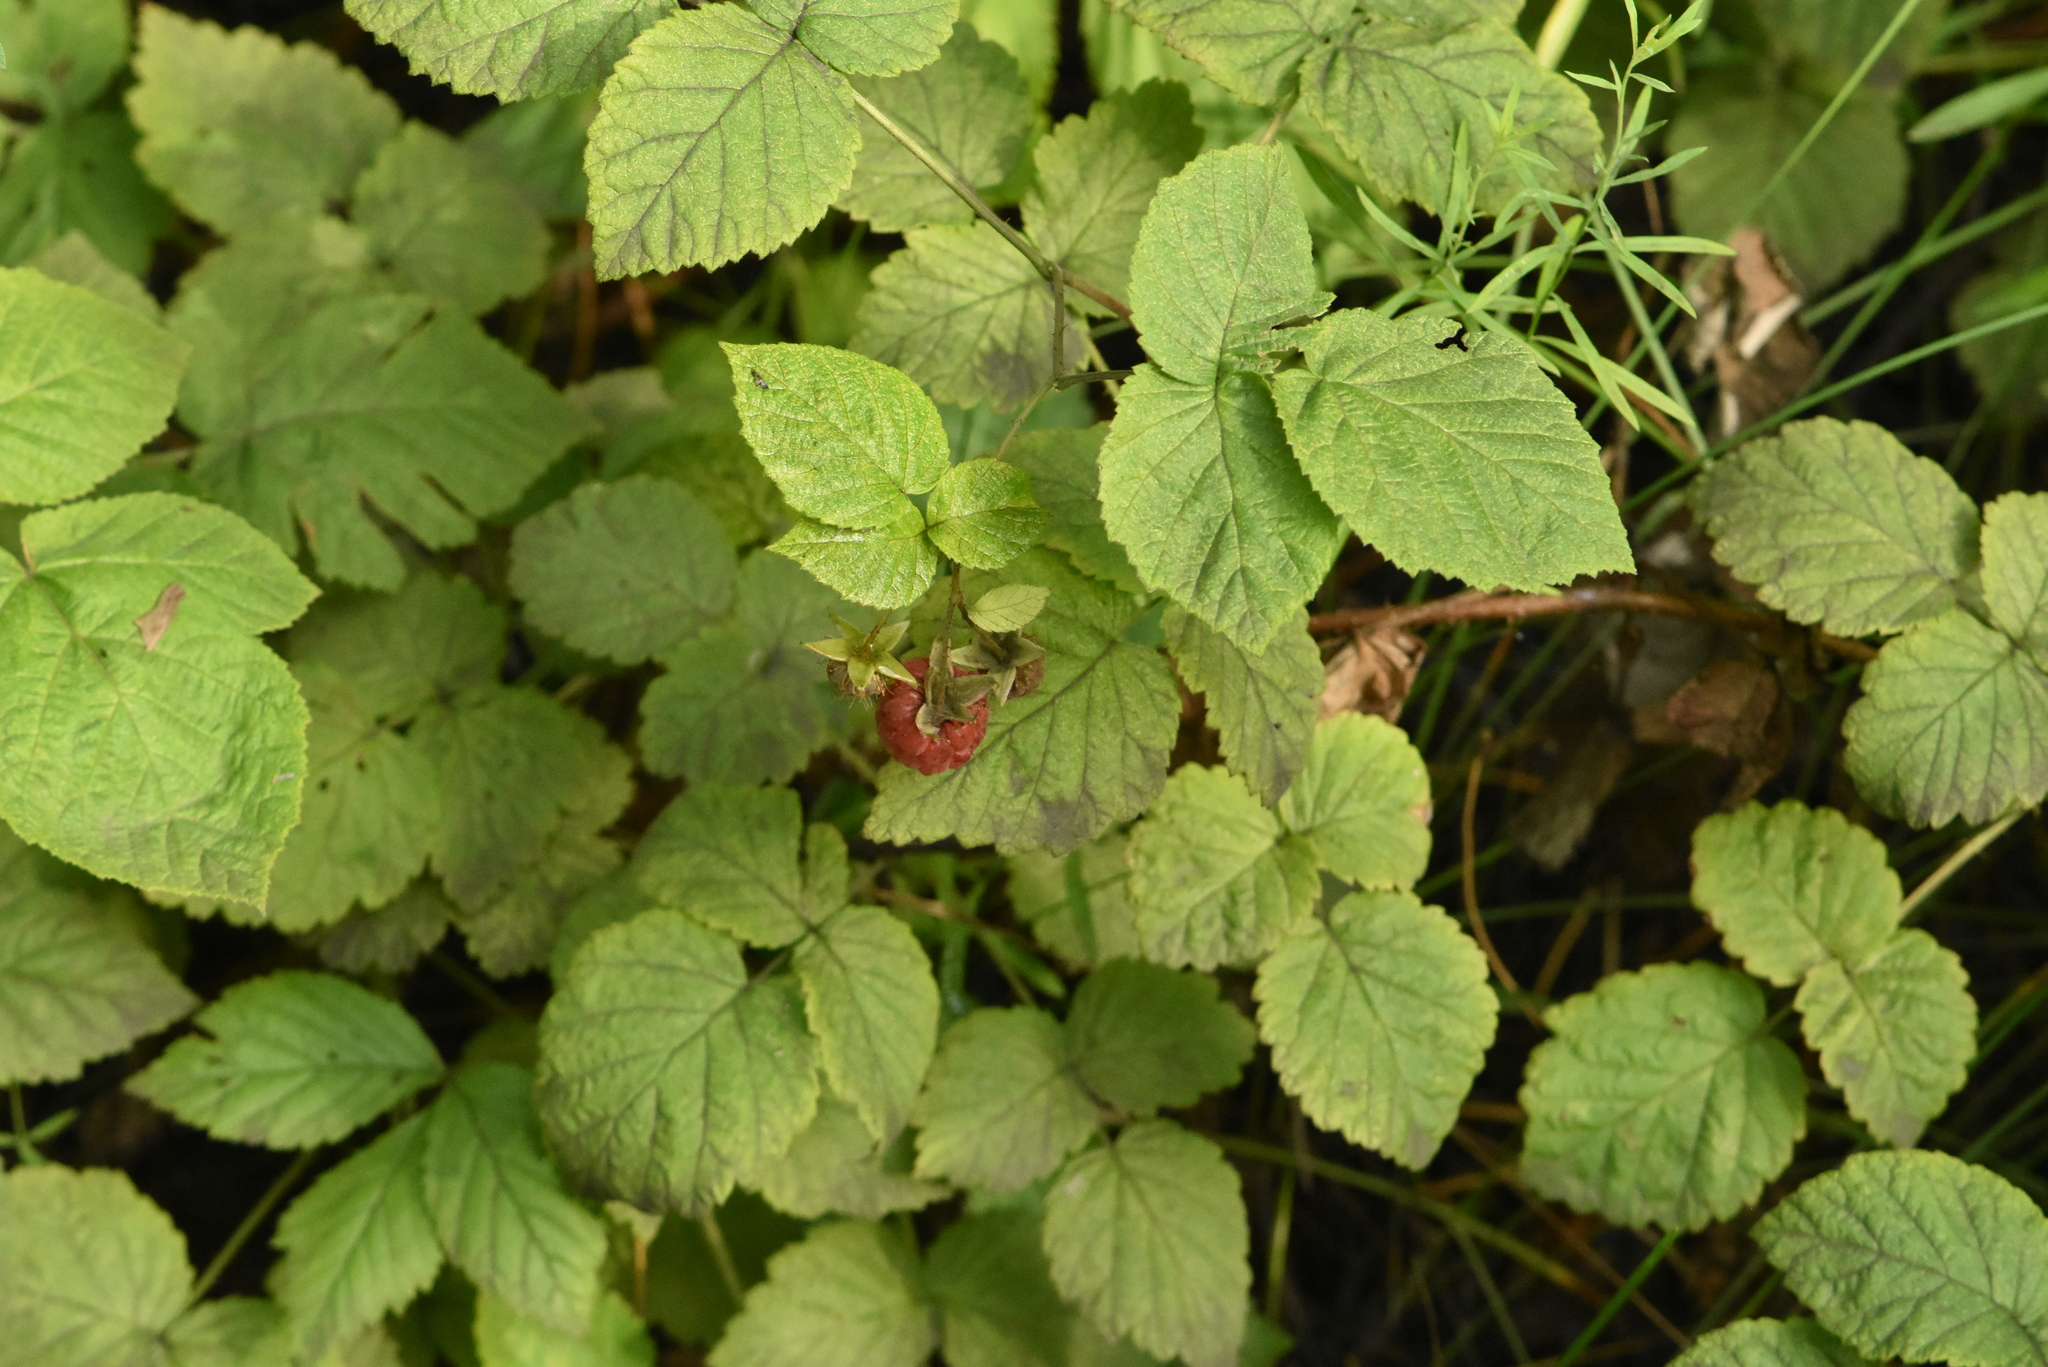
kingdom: Plantae
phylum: Tracheophyta
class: Magnoliopsida
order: Rosales
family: Rosaceae
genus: Rubus
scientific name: Rubus idaeus
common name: Raspberry
